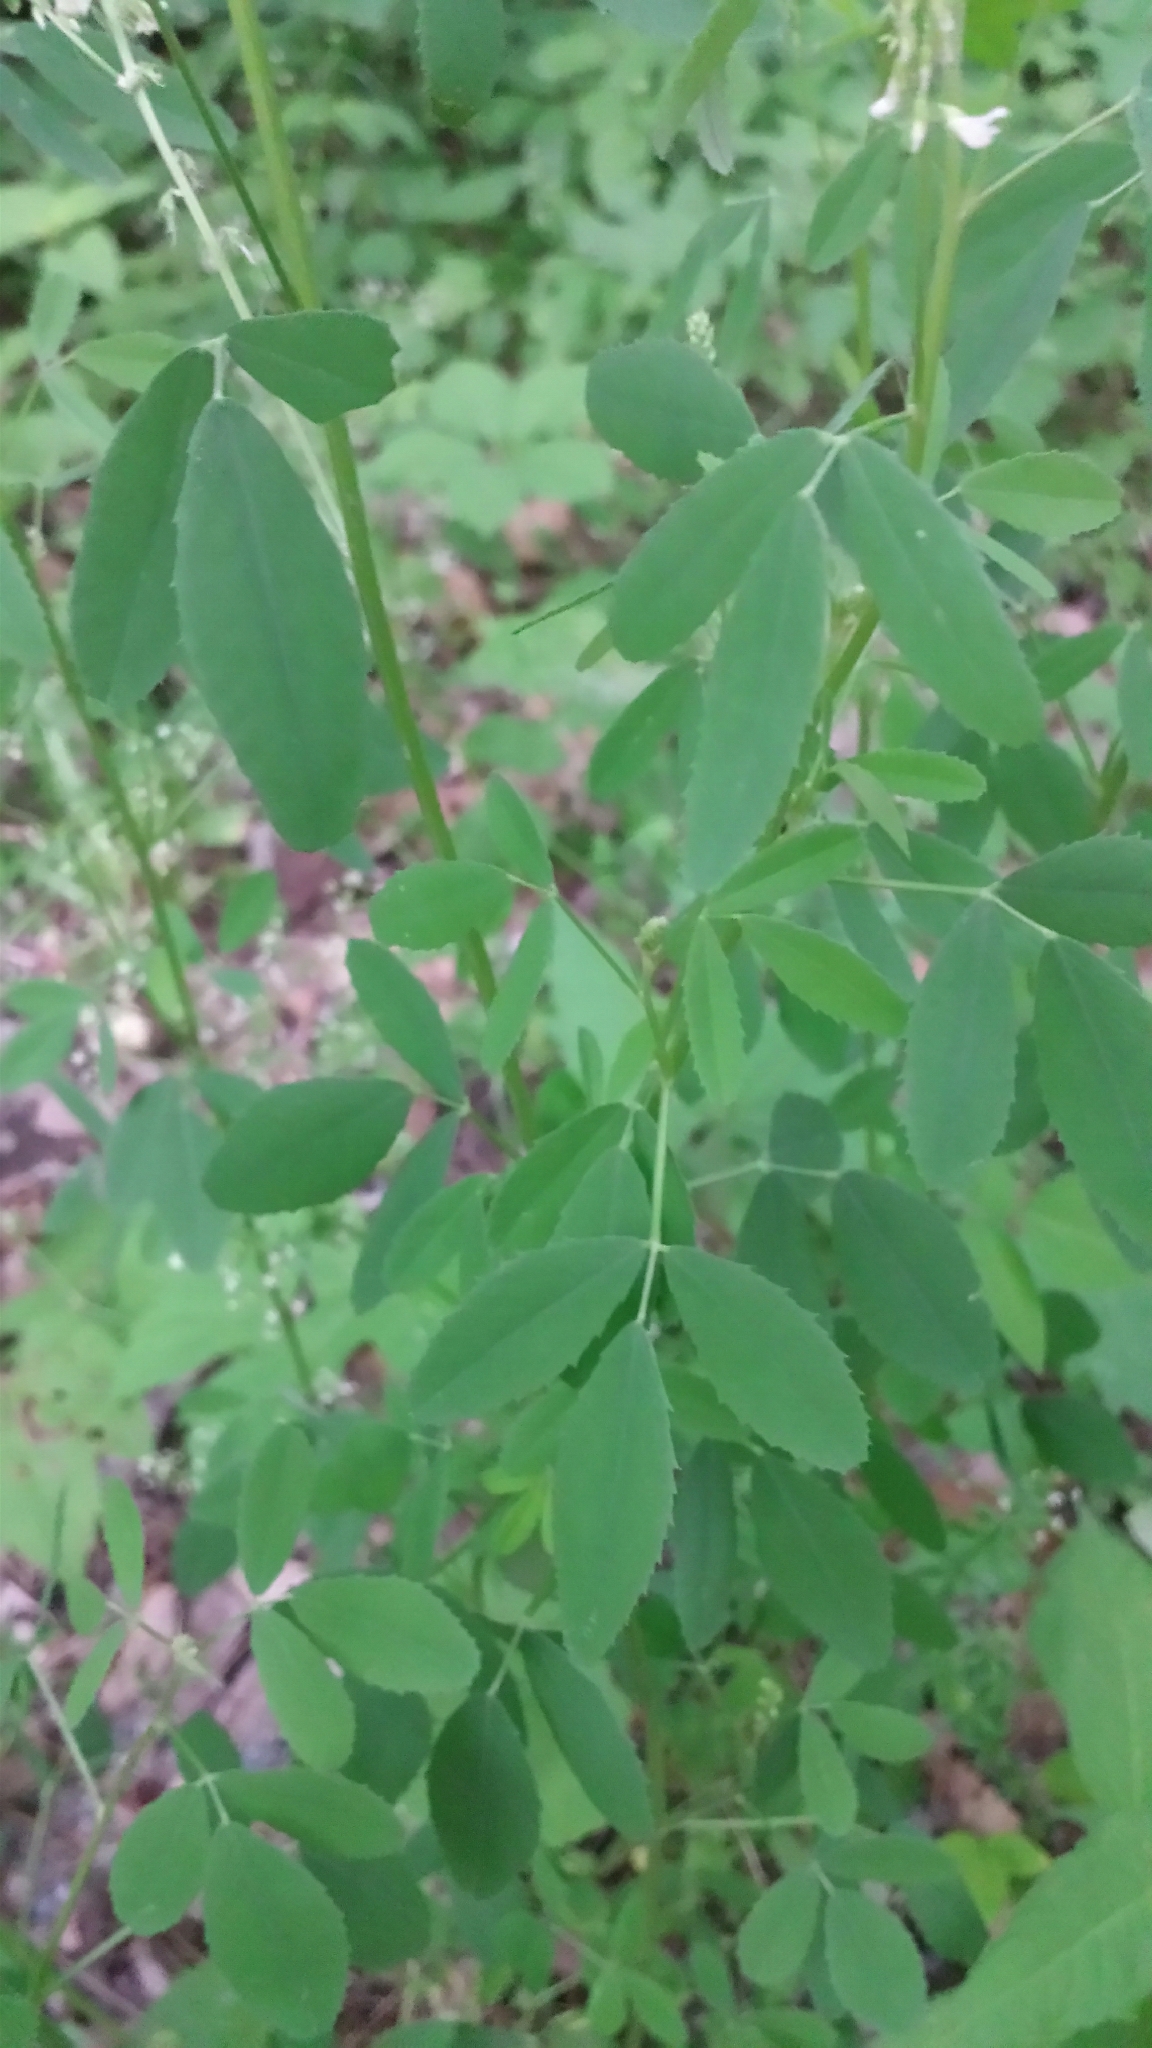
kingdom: Plantae
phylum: Tracheophyta
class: Magnoliopsida
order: Fabales
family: Fabaceae
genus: Melilotus
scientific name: Melilotus albus
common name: White melilot
